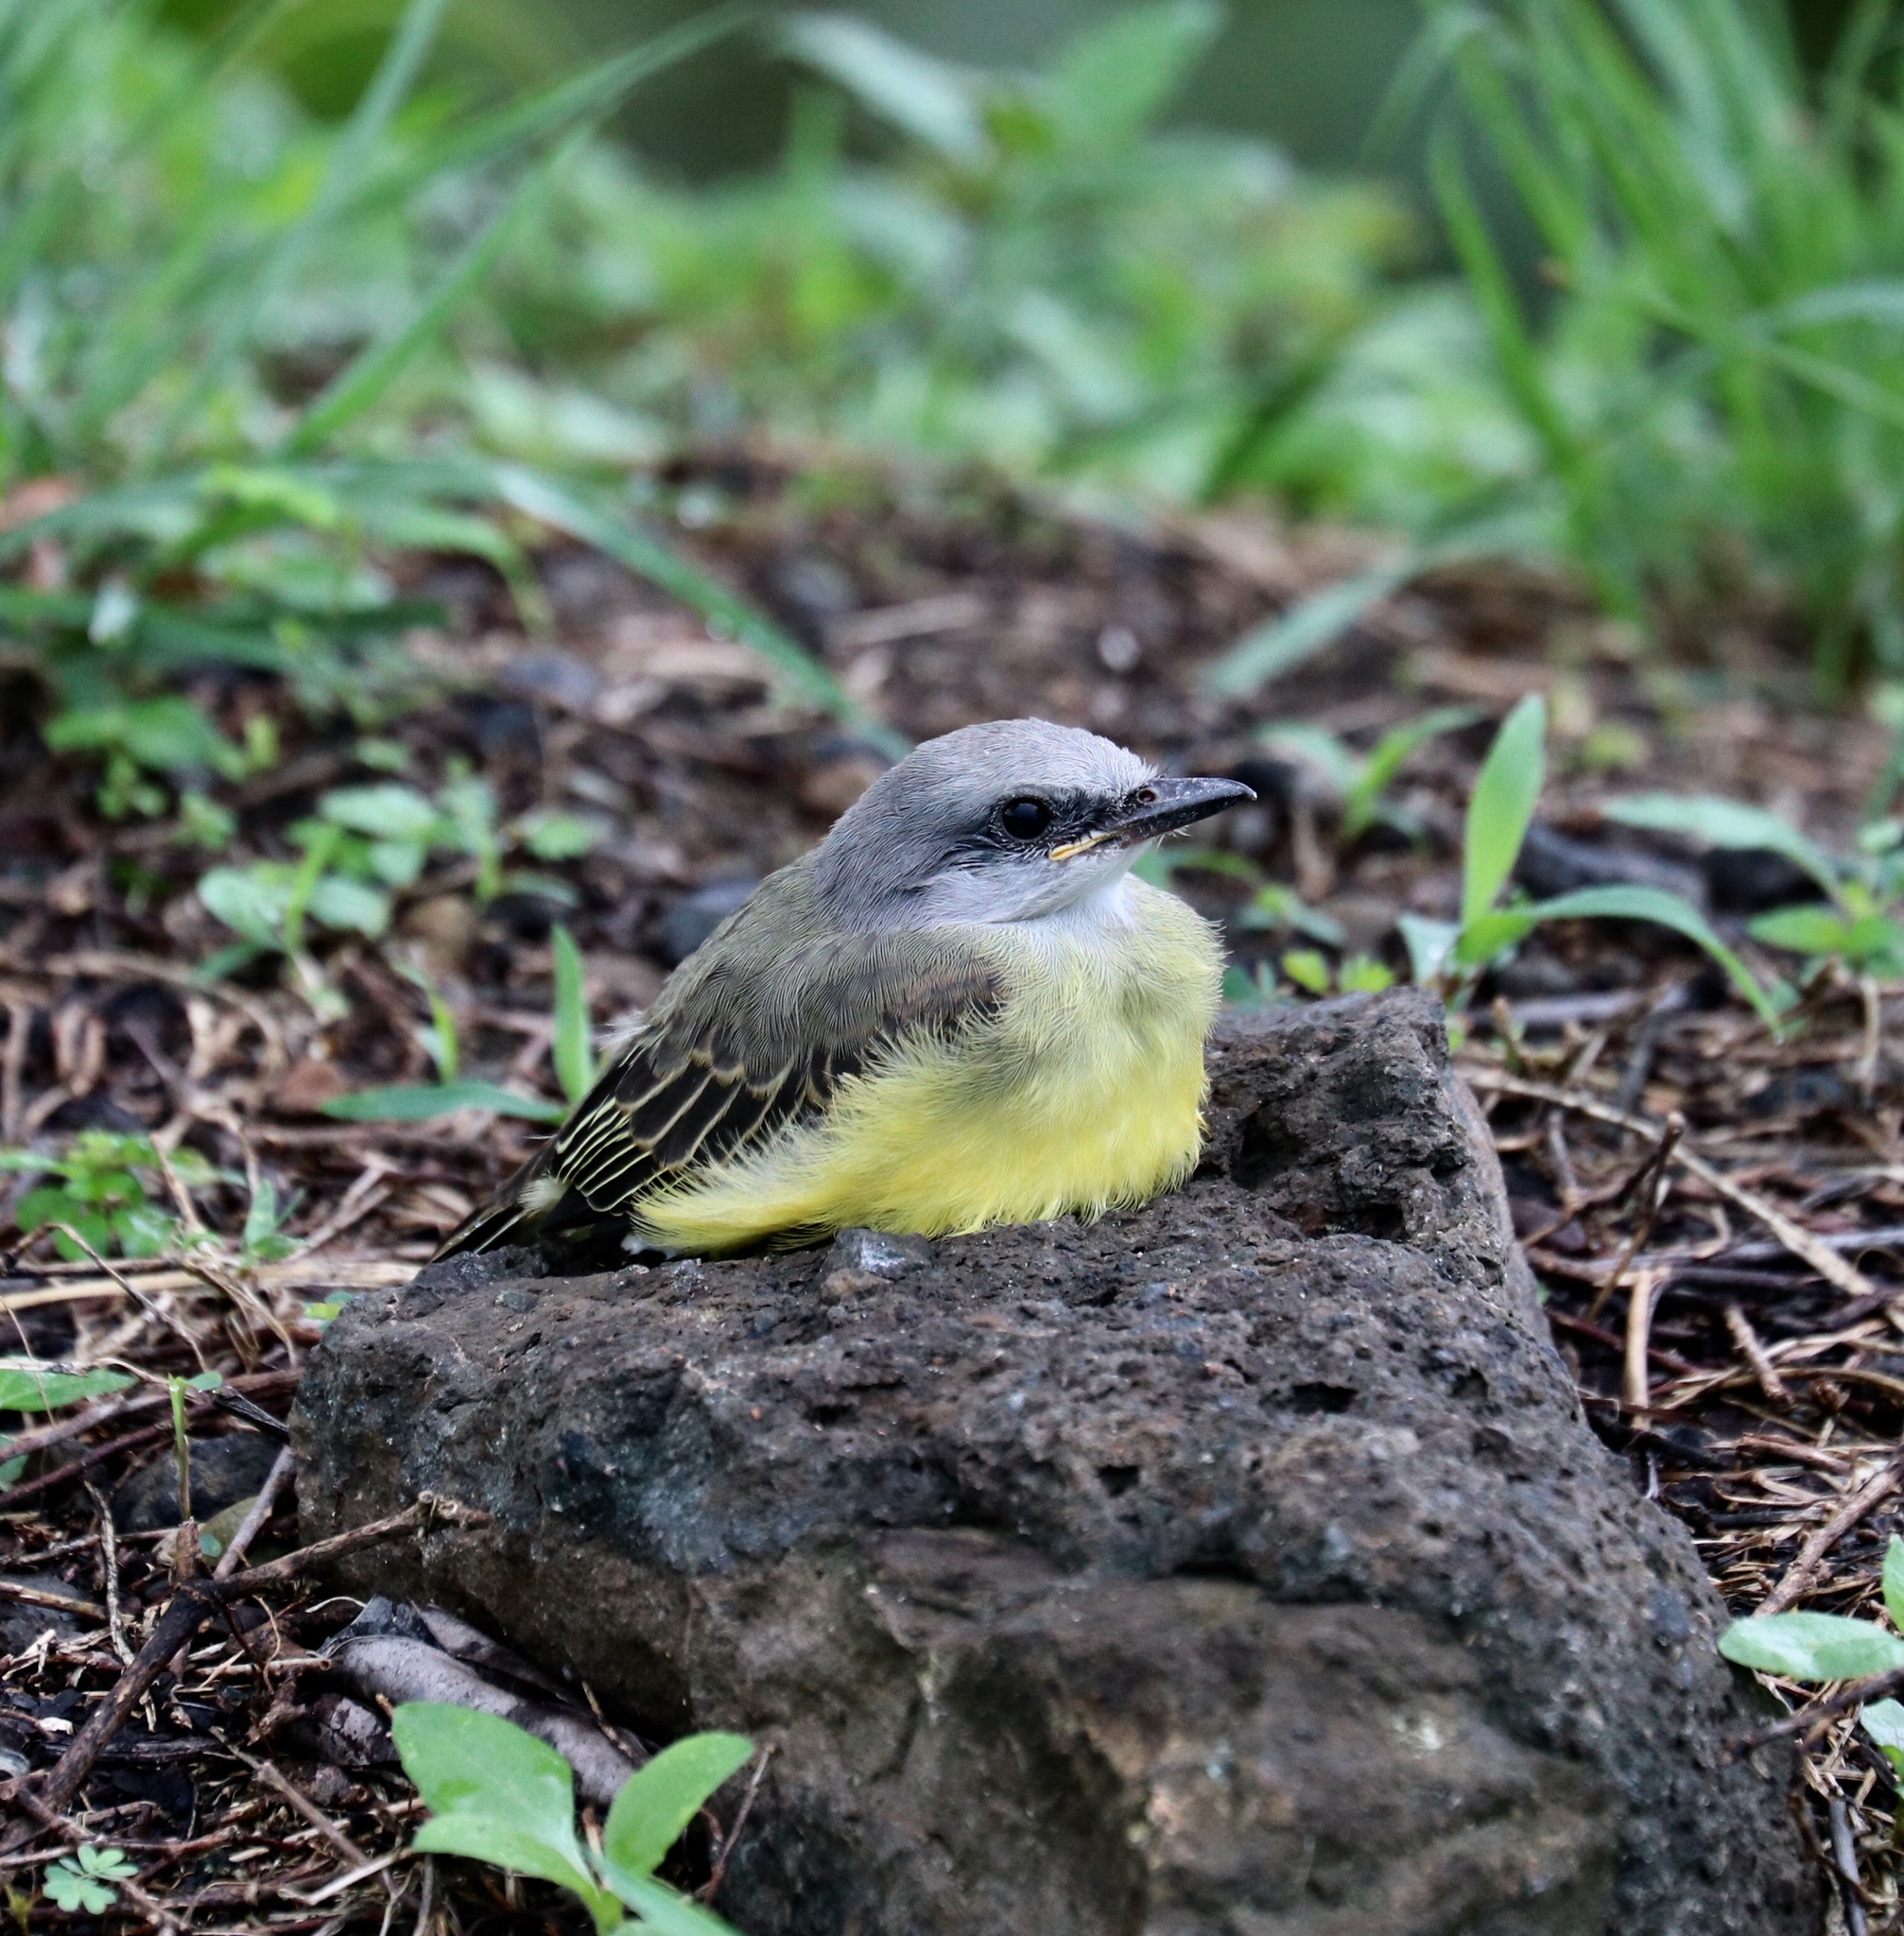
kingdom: Animalia
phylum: Chordata
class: Aves
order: Passeriformes
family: Tyrannidae
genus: Tyrannus
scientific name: Tyrannus melancholicus
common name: Tropical kingbird
